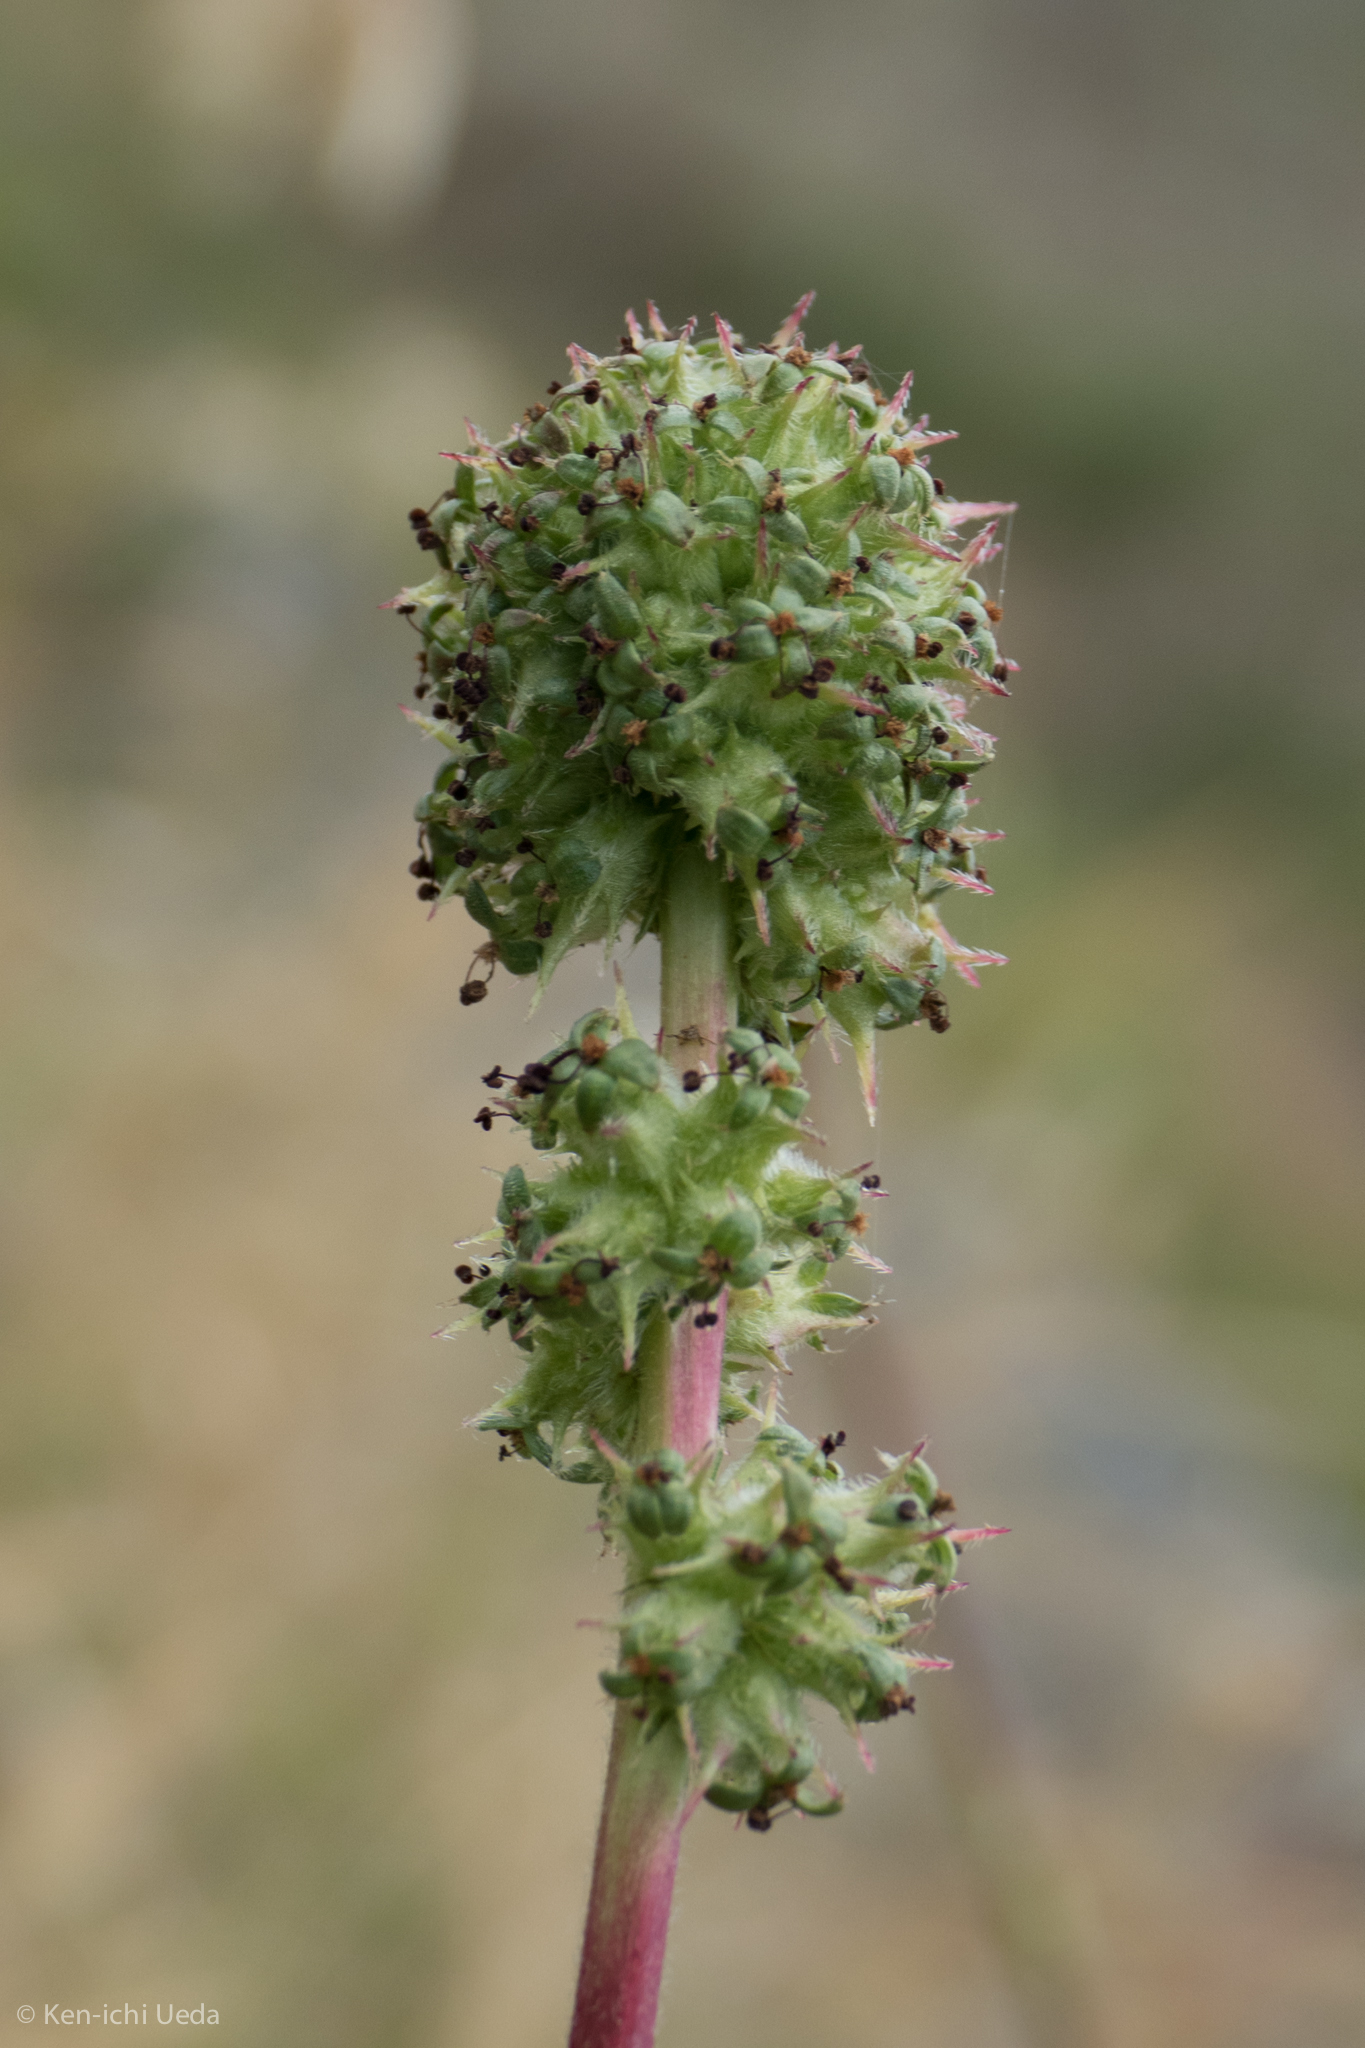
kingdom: Plantae
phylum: Tracheophyta
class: Magnoliopsida
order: Rosales
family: Rosaceae
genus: Acaena
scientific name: Acaena pinnatifida
